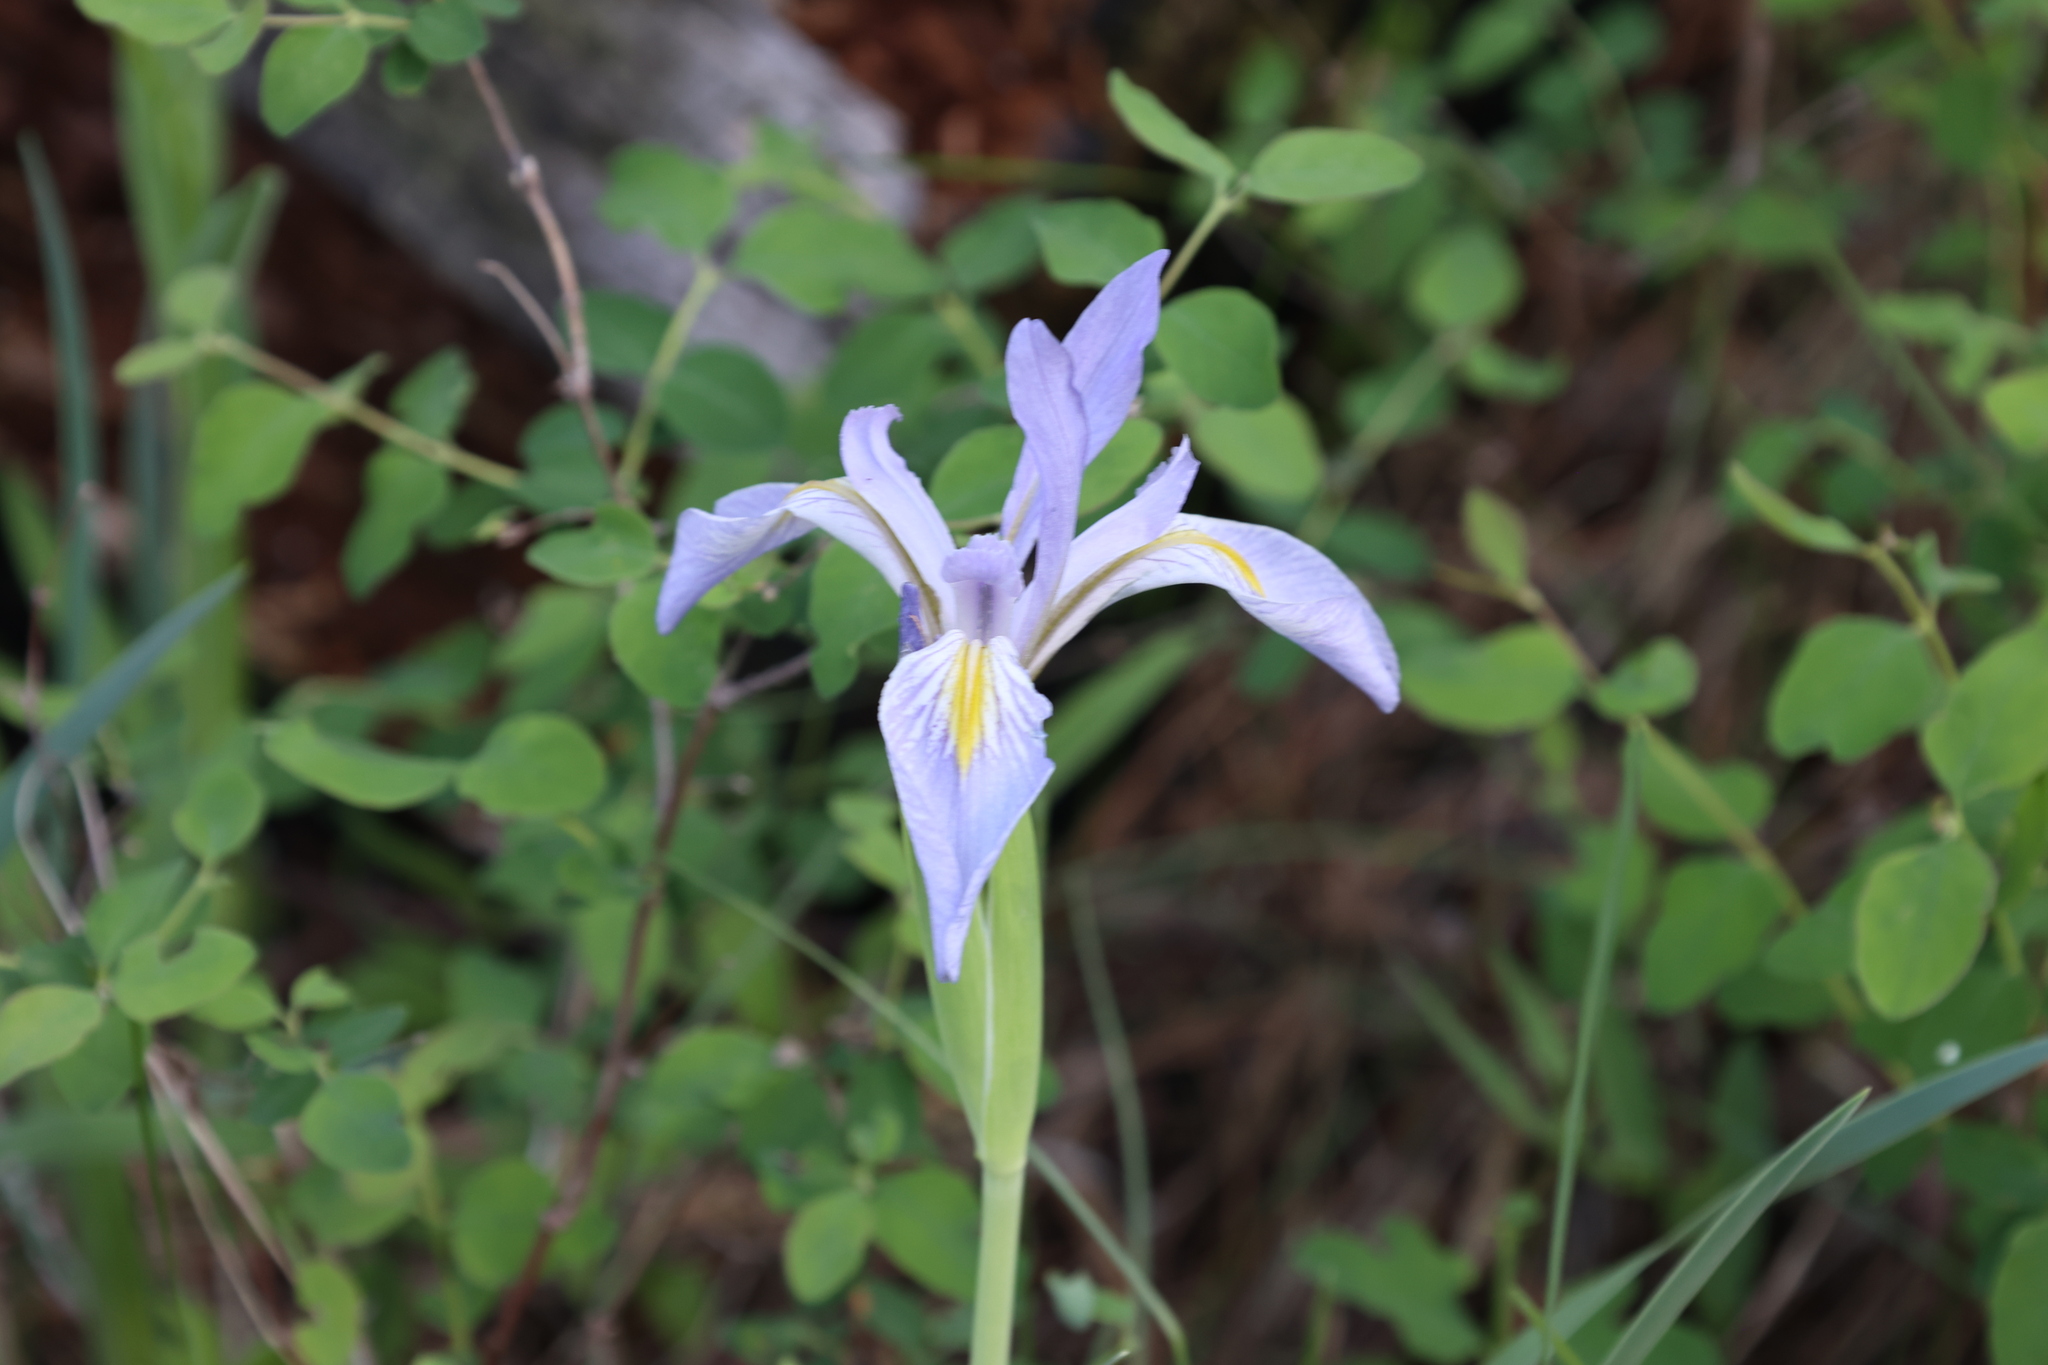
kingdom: Plantae
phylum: Tracheophyta
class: Liliopsida
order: Asparagales
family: Iridaceae
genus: Iris
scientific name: Iris missouriensis
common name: Rocky mountain iris
